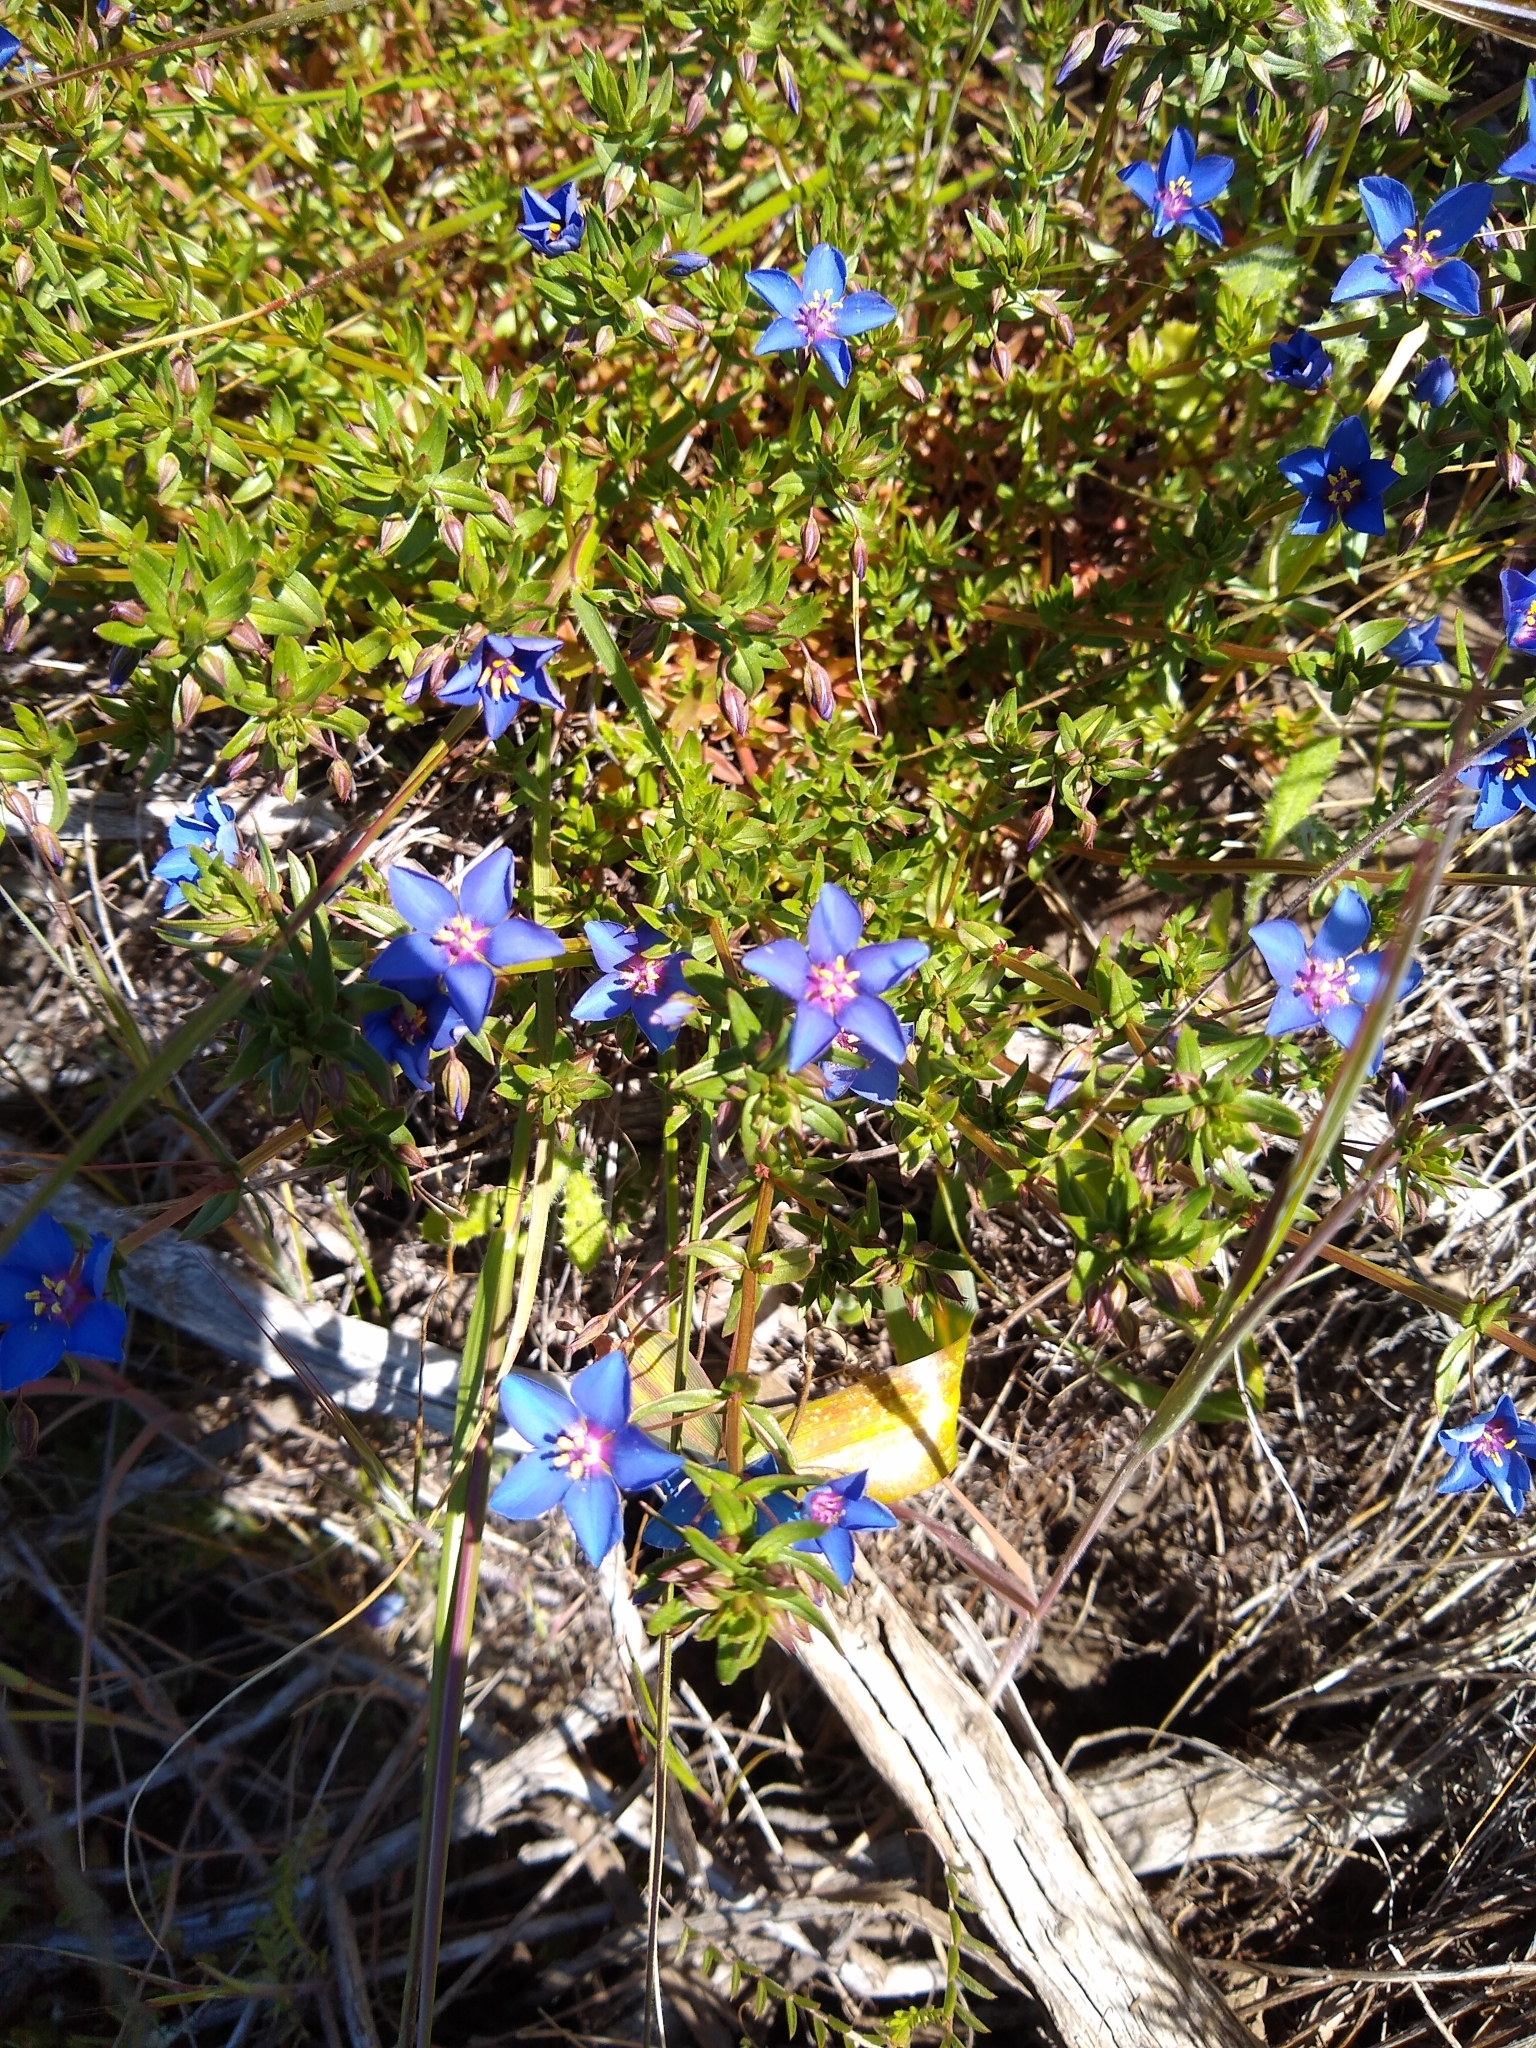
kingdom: Plantae
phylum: Tracheophyta
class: Magnoliopsida
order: Ericales
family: Primulaceae
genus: Lysimachia
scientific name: Lysimachia monelli
